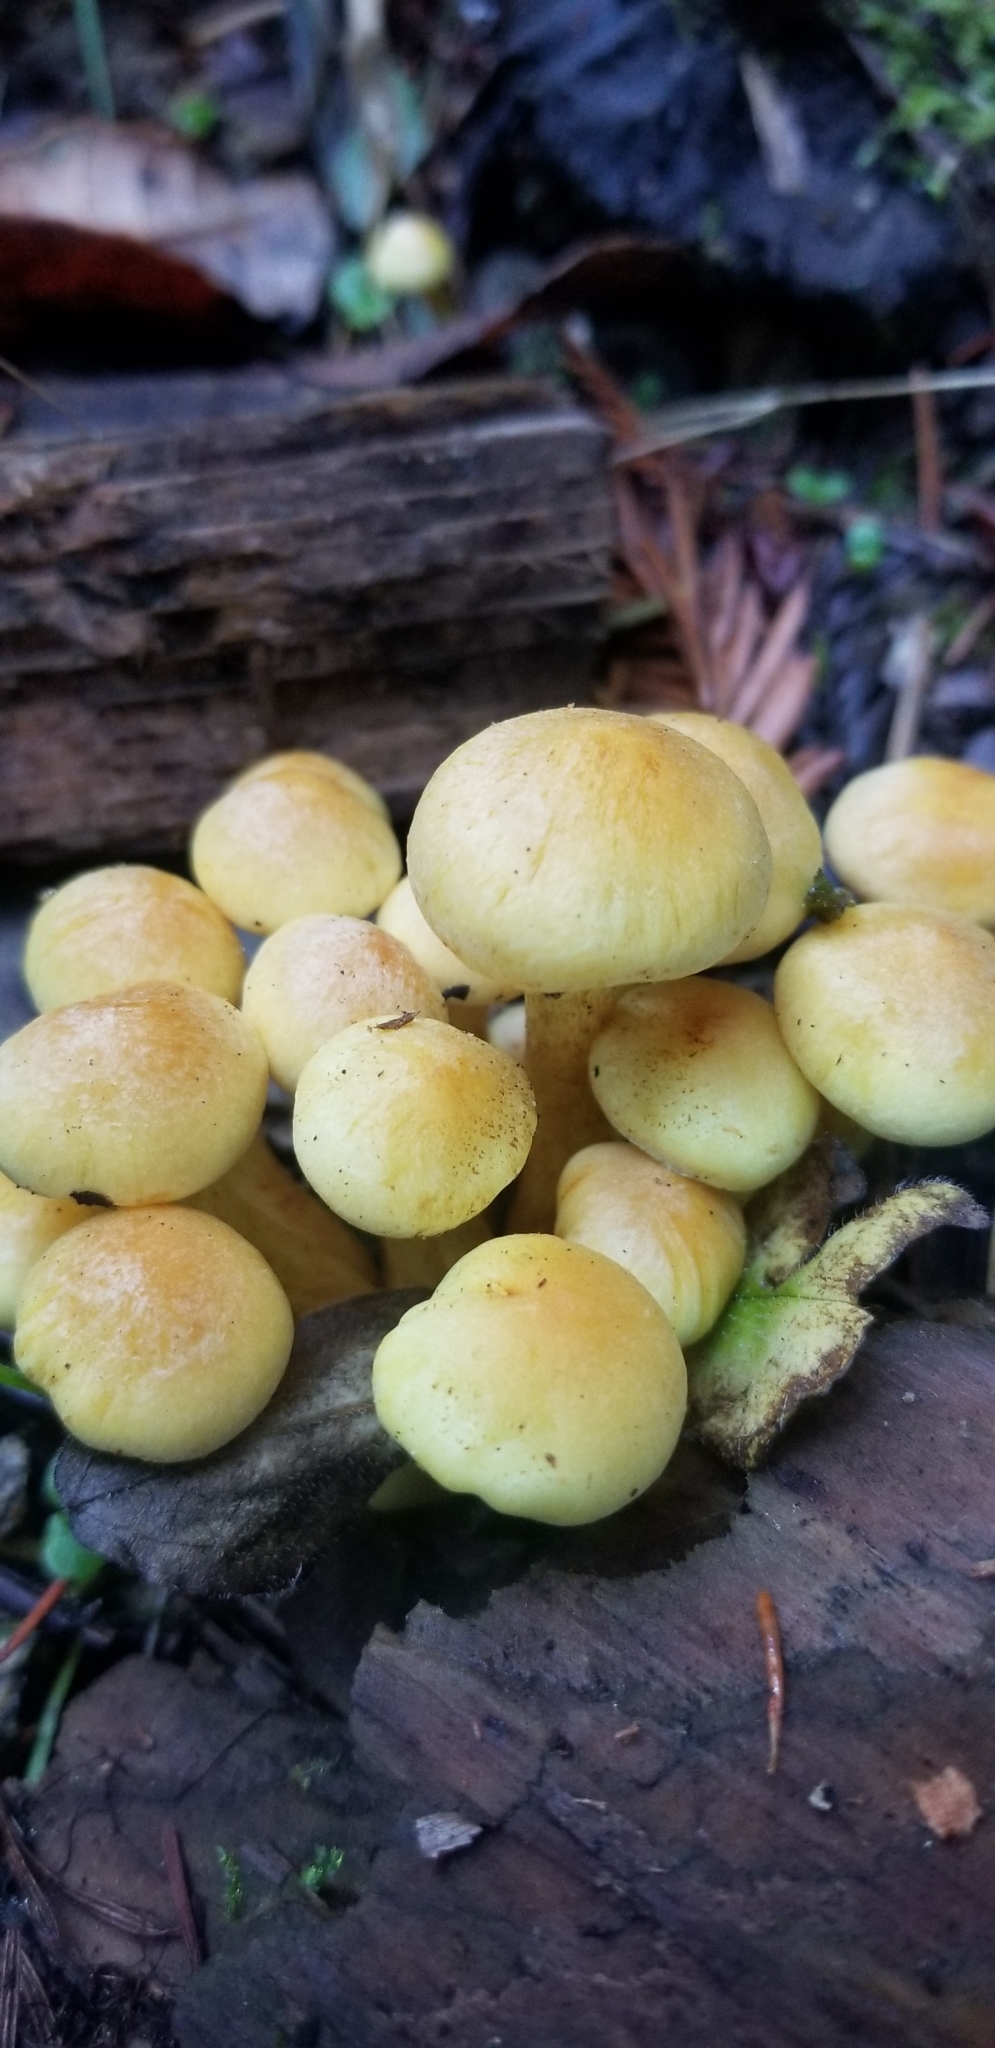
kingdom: Fungi
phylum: Basidiomycota
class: Agaricomycetes
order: Agaricales
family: Strophariaceae
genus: Hypholoma
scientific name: Hypholoma fasciculare
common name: Sulphur tuft
